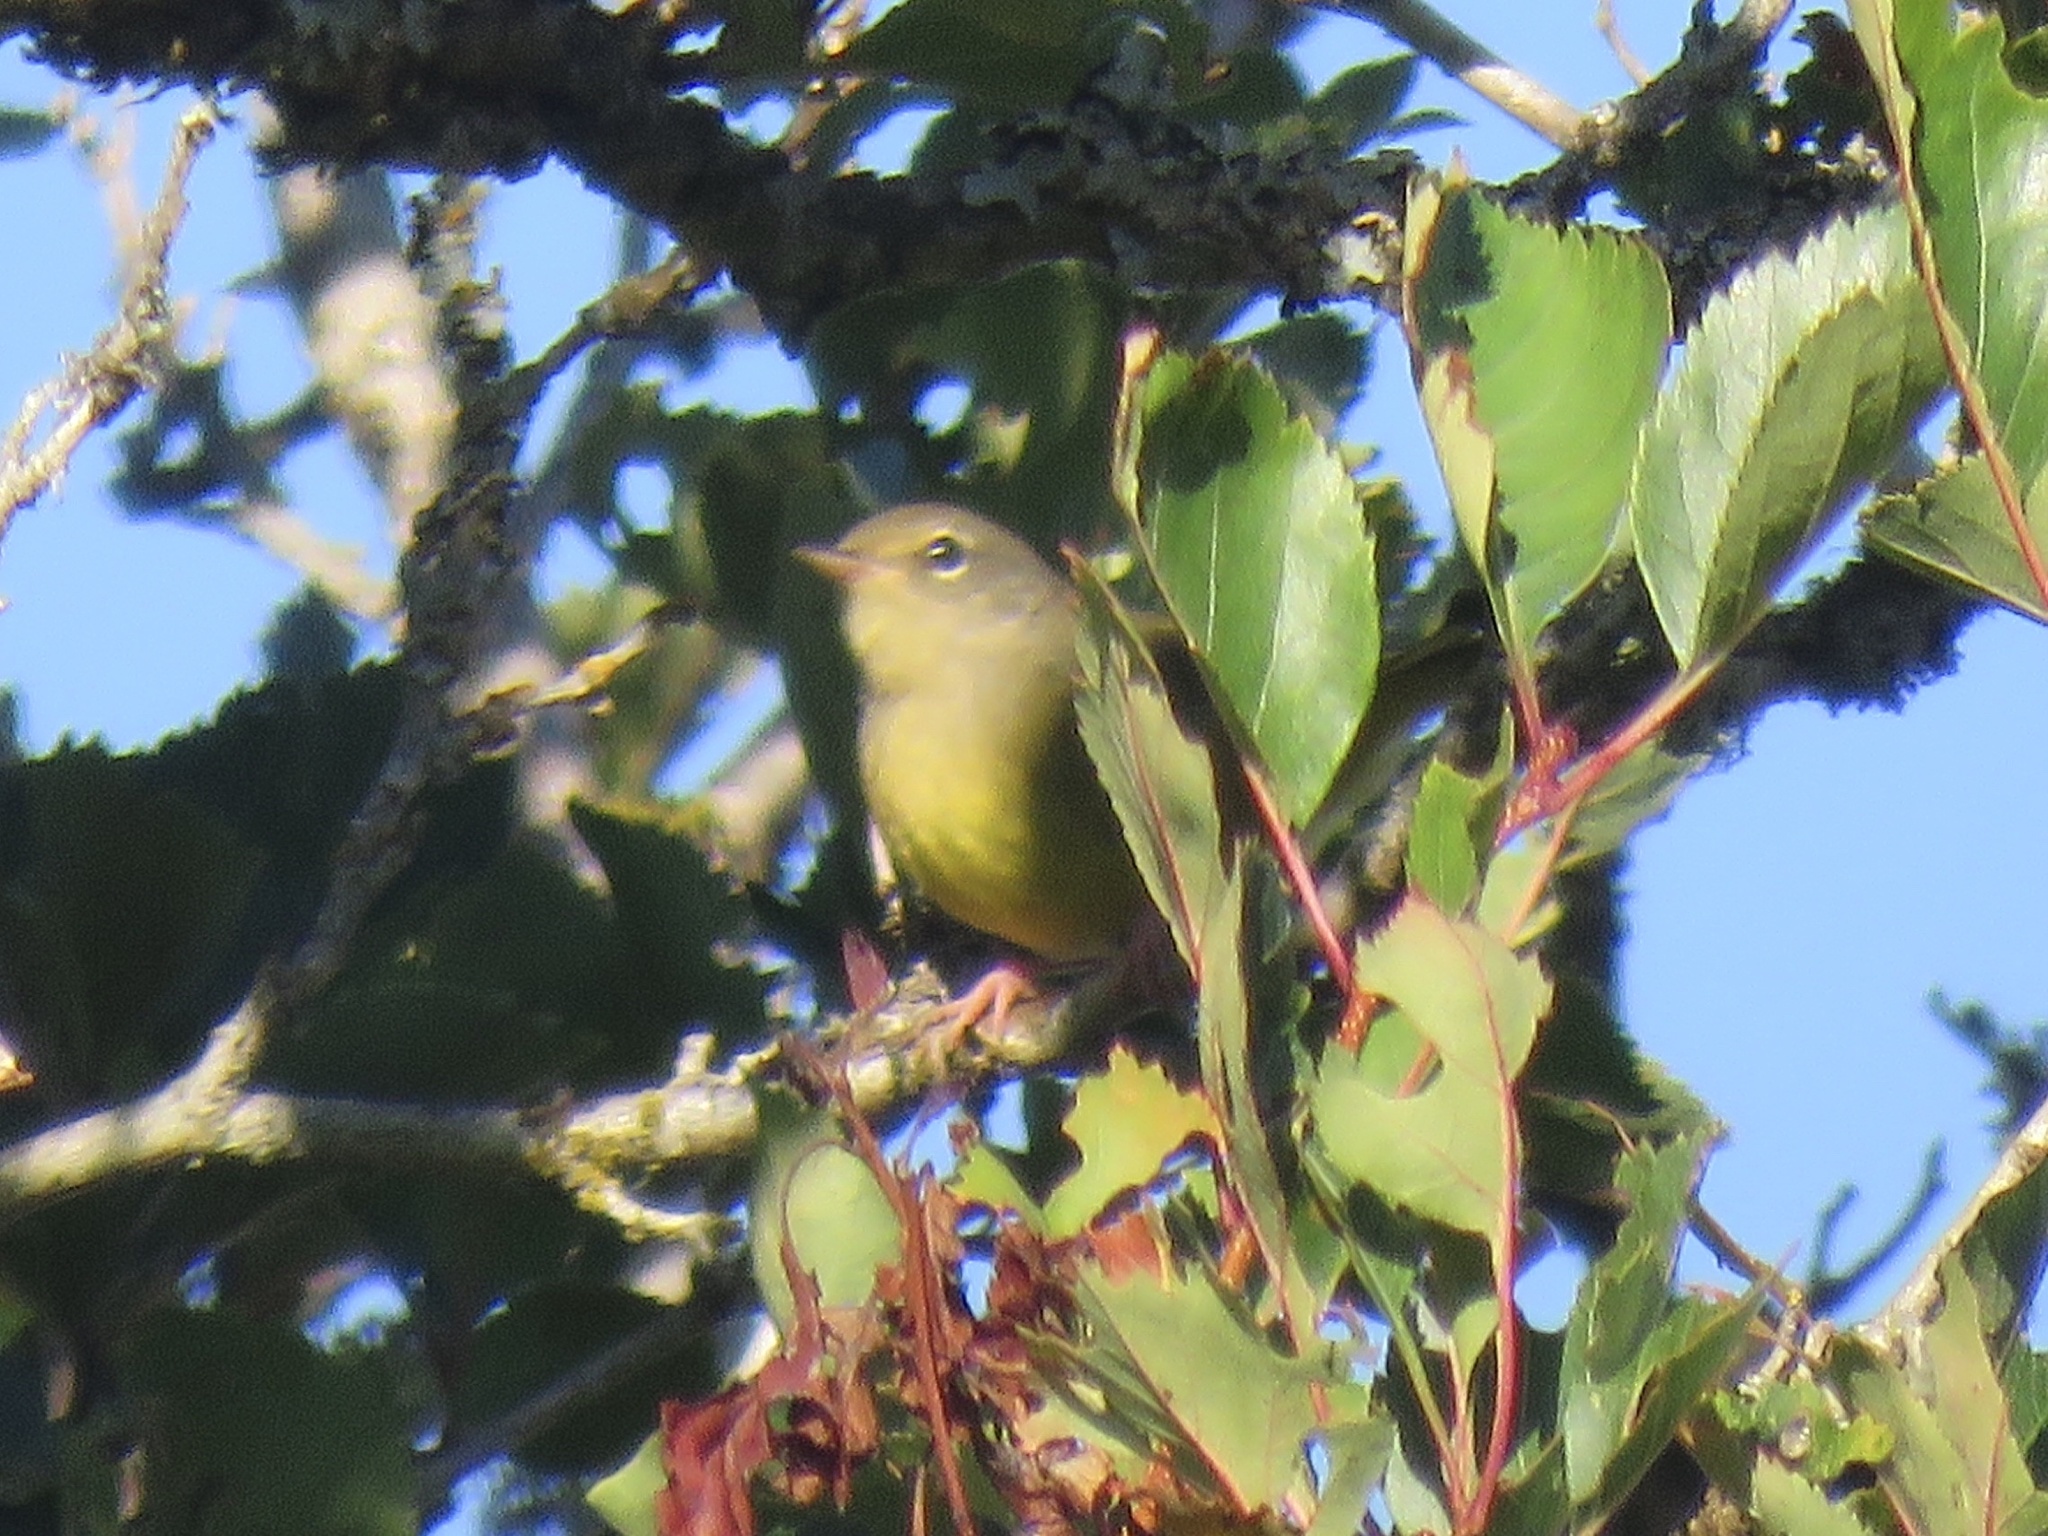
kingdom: Animalia
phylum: Chordata
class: Aves
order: Passeriformes
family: Parulidae
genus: Leiothlypis
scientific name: Leiothlypis celata
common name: Orange-crowned warbler
